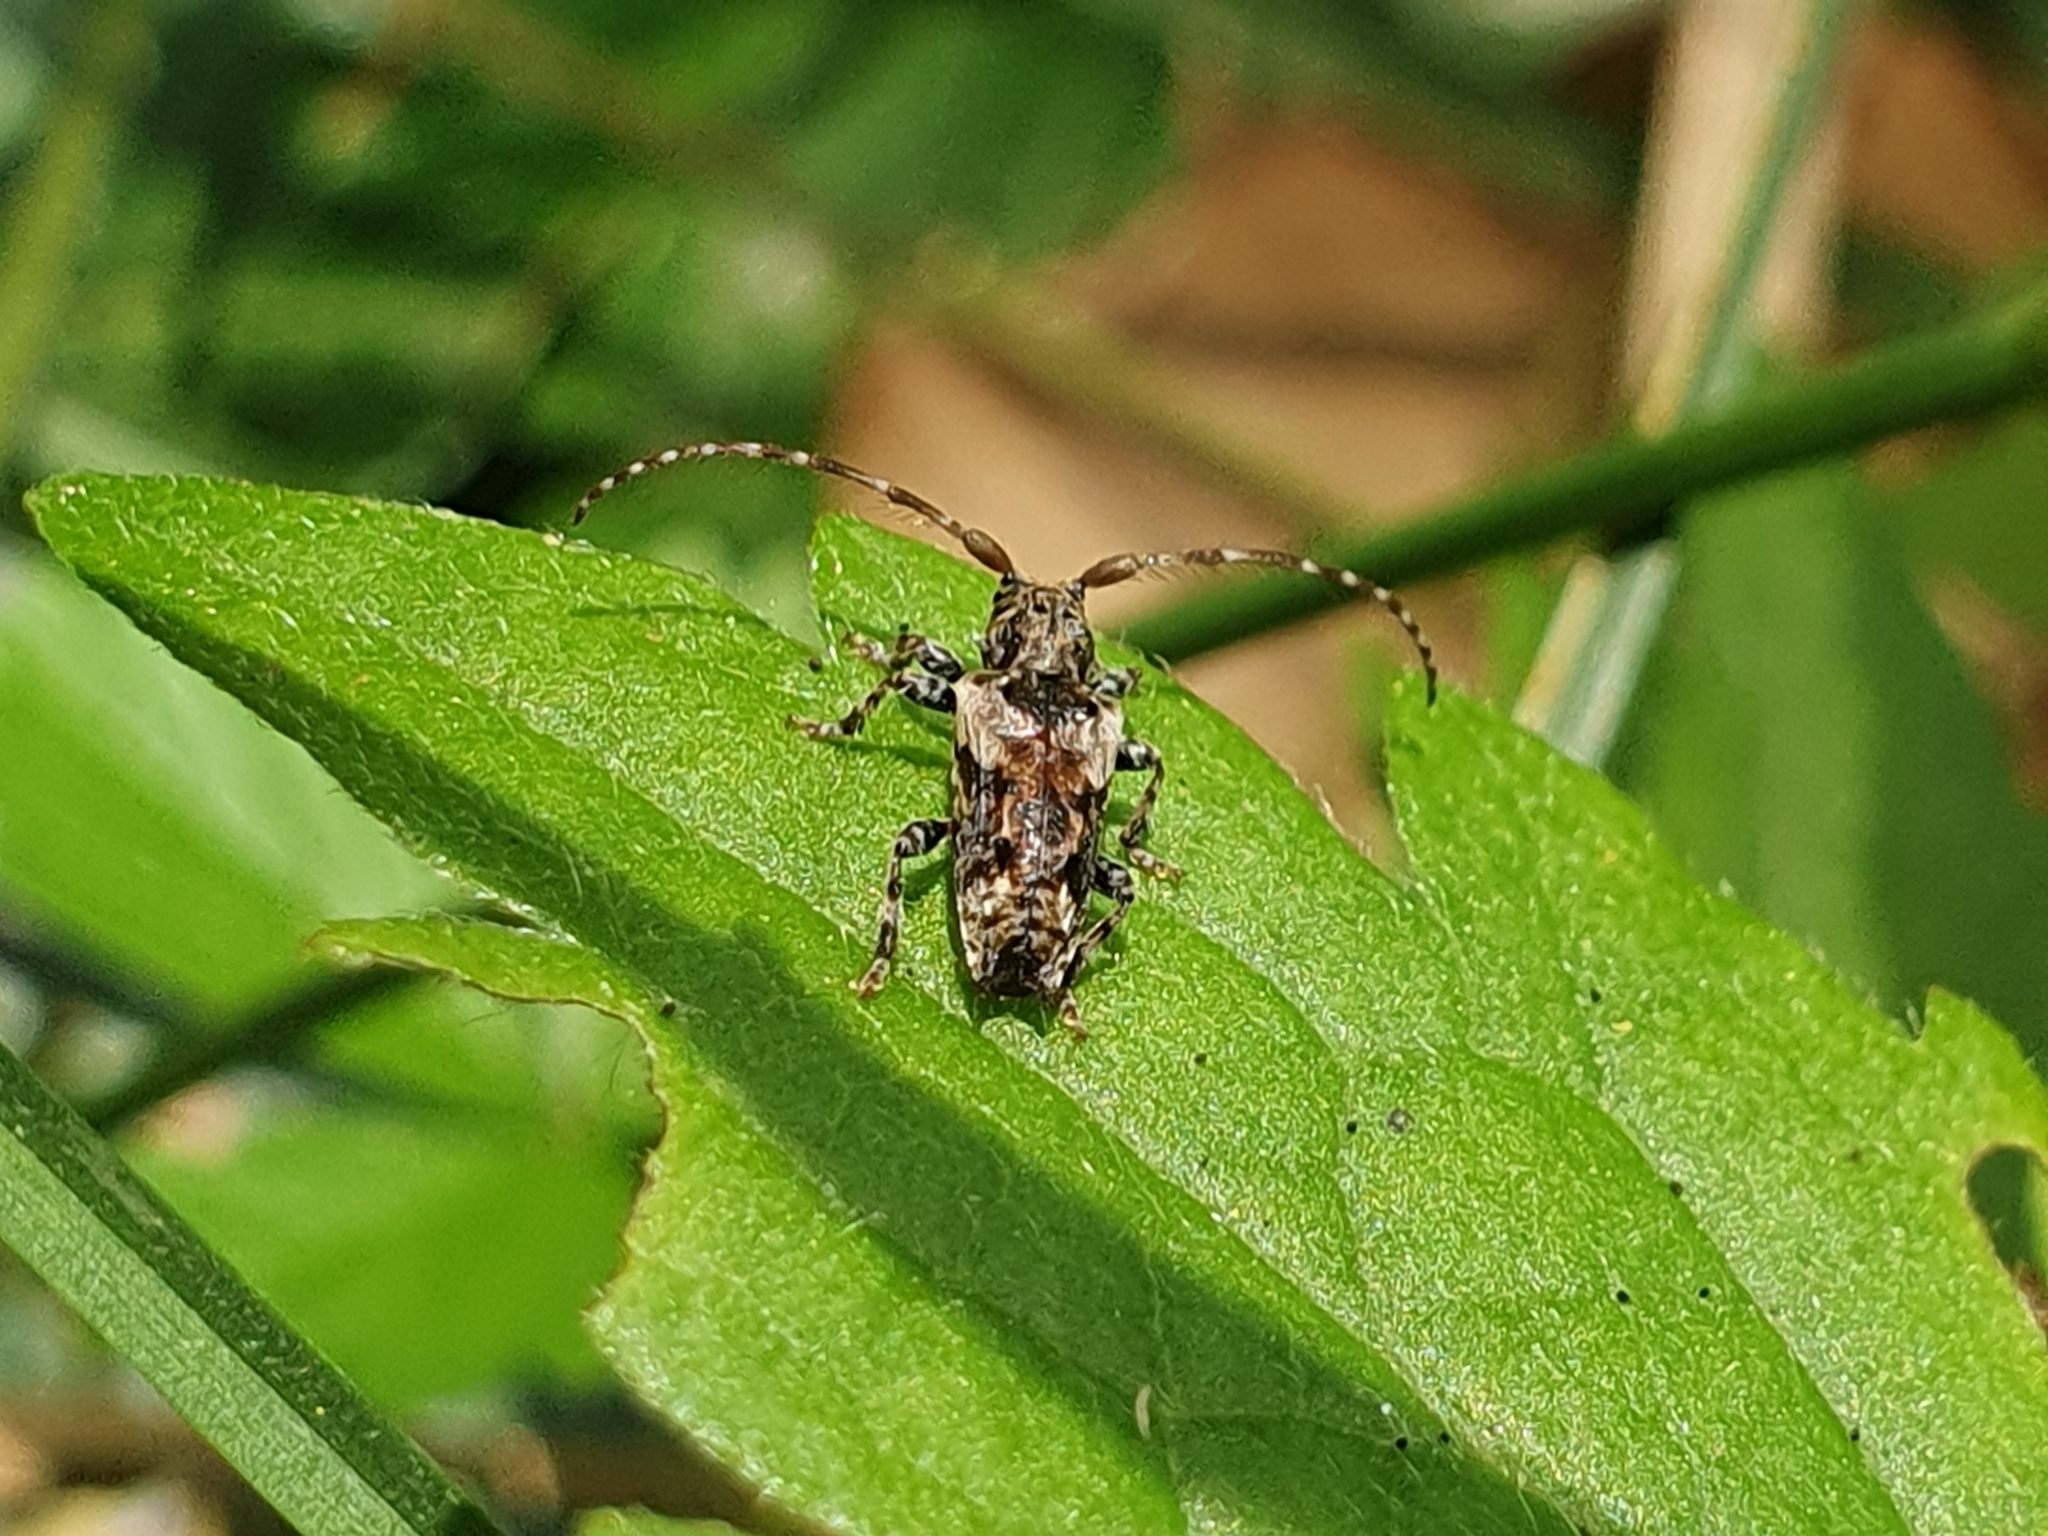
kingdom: Animalia
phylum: Arthropoda
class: Insecta
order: Coleoptera
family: Cerambycidae
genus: Pogonocherus
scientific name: Pogonocherus hispidus
